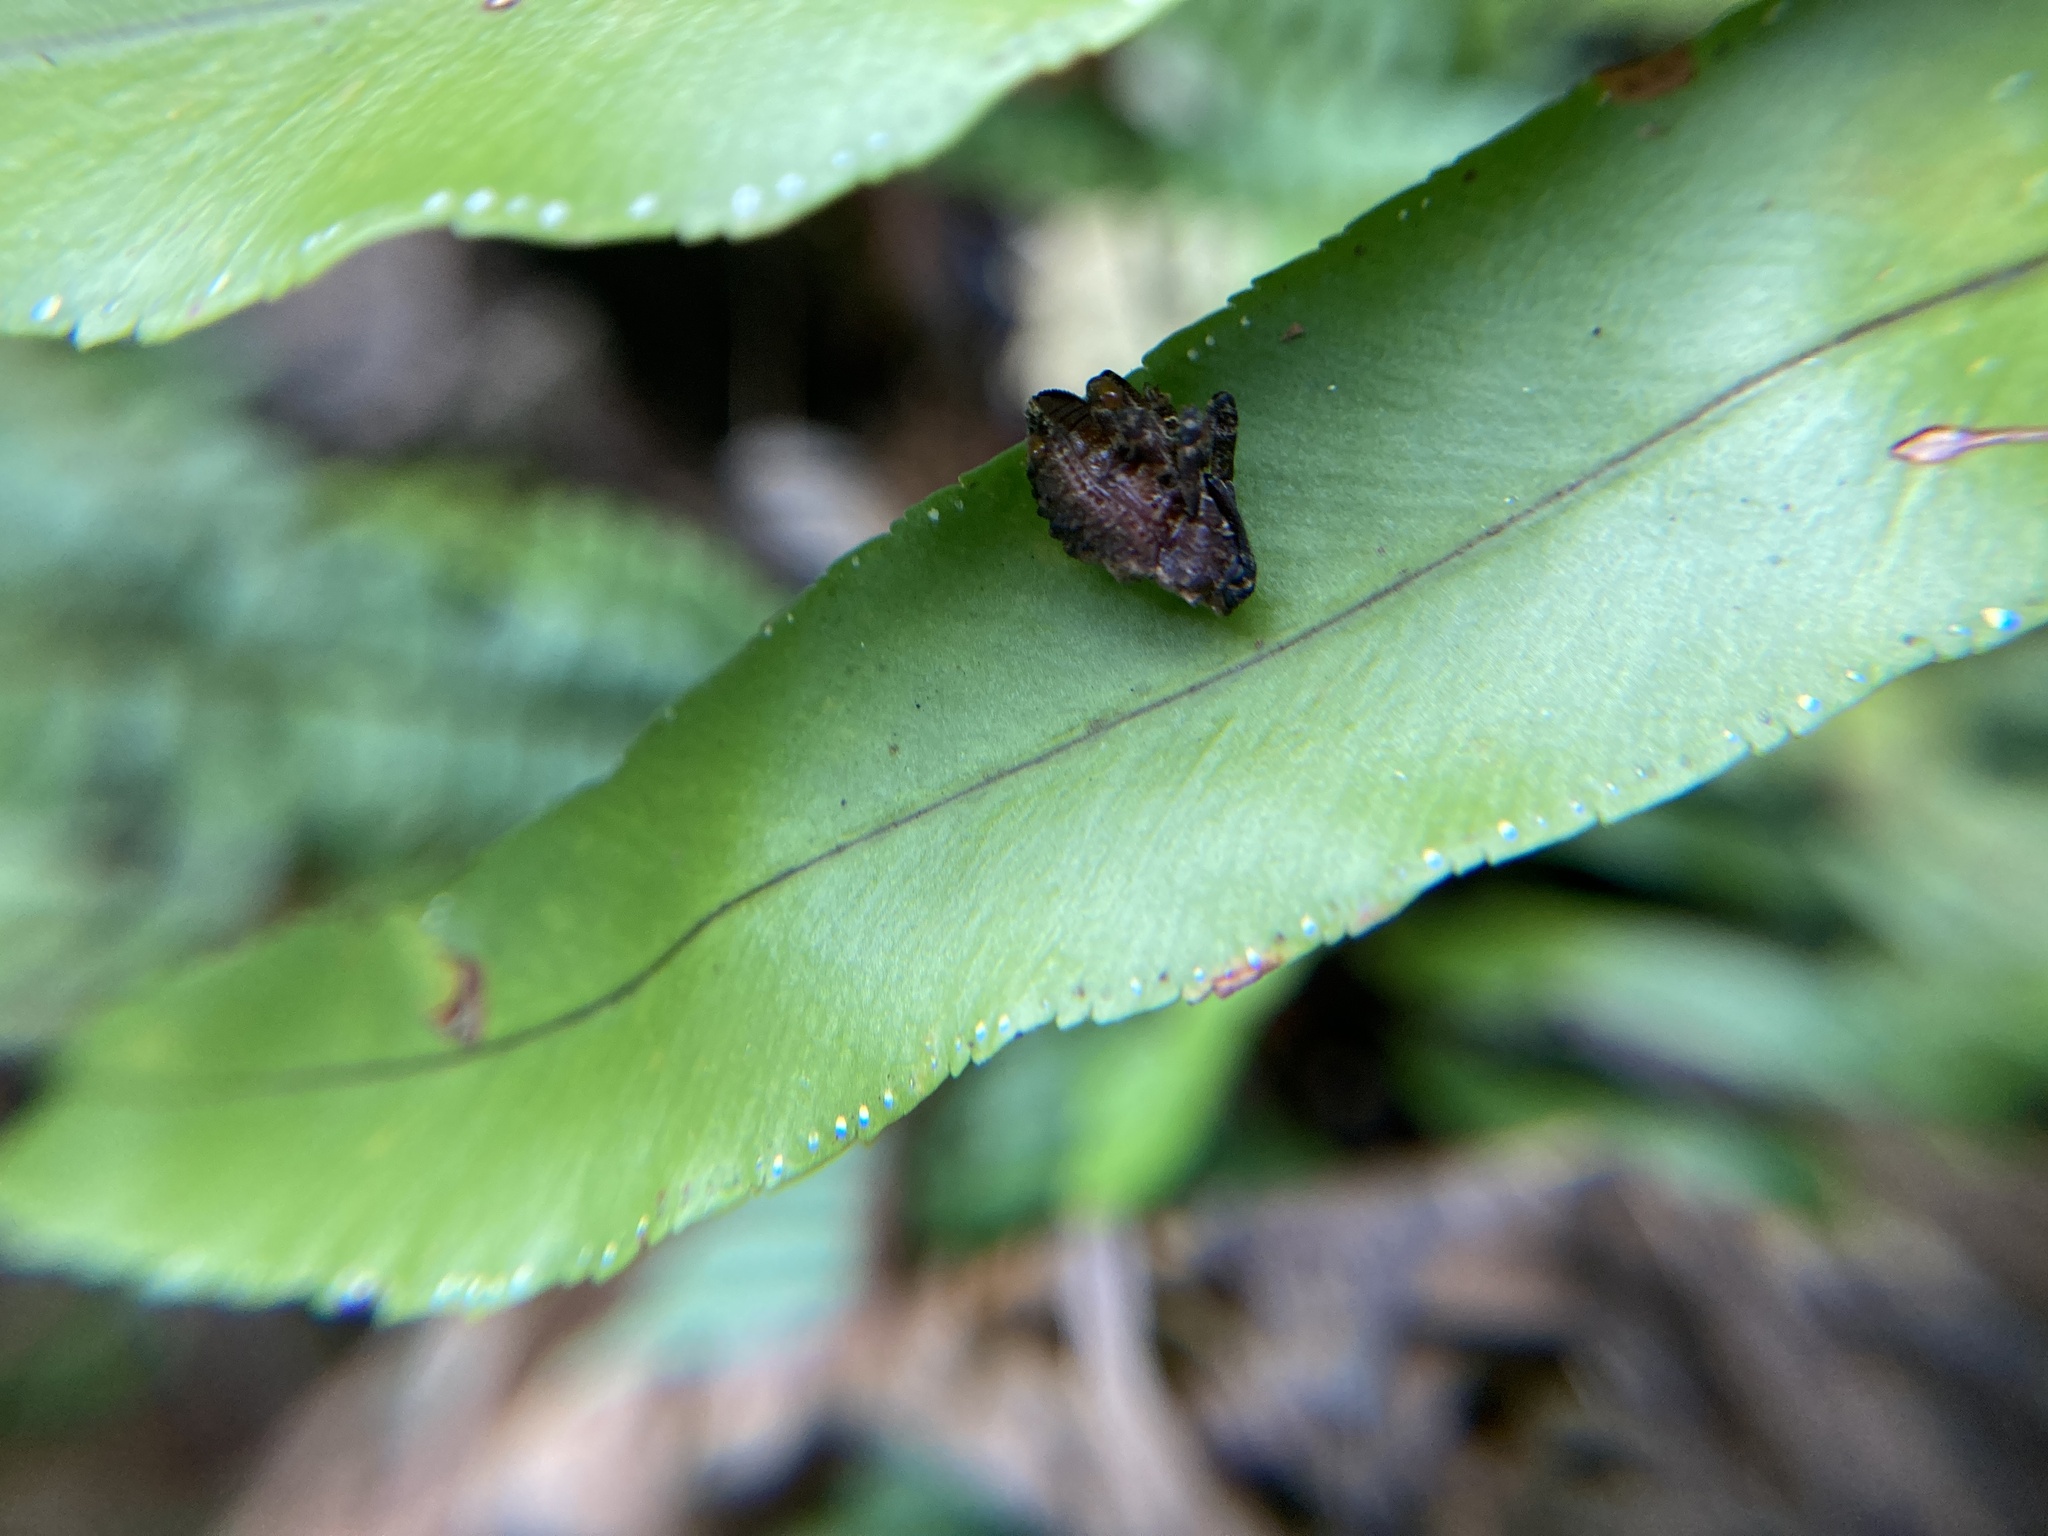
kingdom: Animalia
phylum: Arthropoda
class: Insecta
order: Coleoptera
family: Curculionidae
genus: Blepiarda
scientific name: Blepiarda undulata
